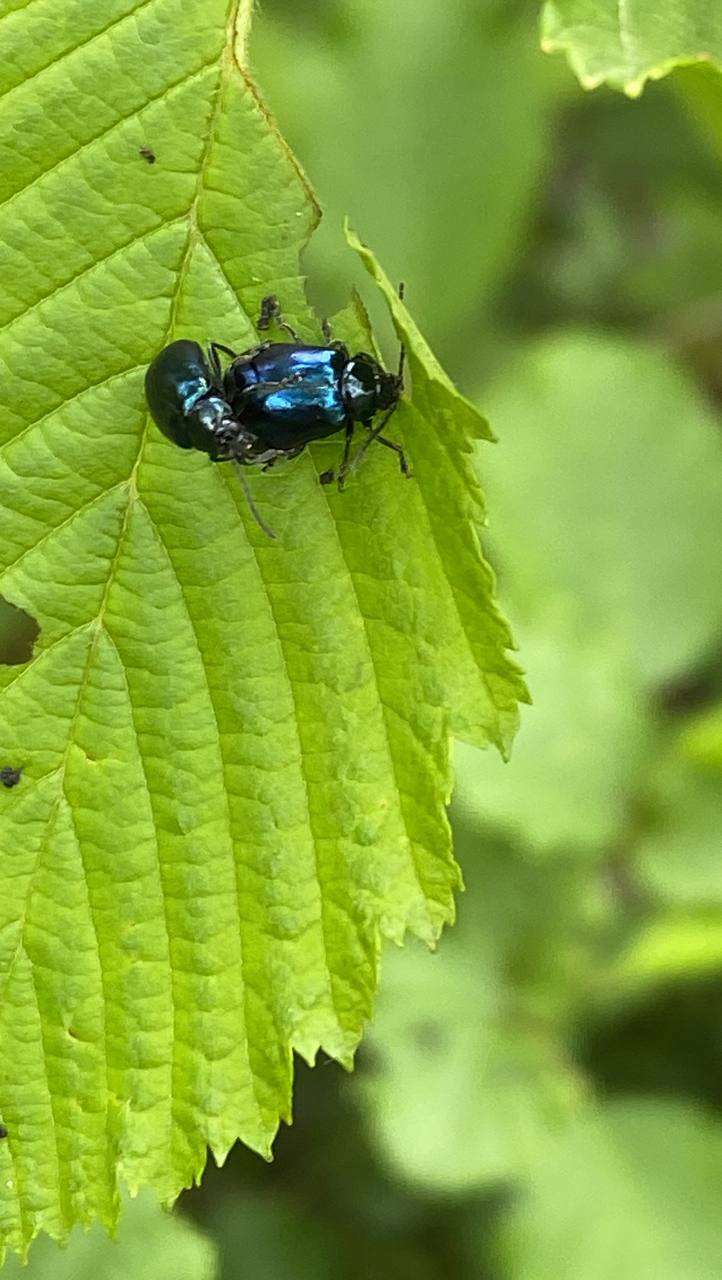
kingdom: Animalia
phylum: Arthropoda
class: Insecta
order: Coleoptera
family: Chrysomelidae
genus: Agelastica
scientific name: Agelastica alni
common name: Alder leaf beetle
